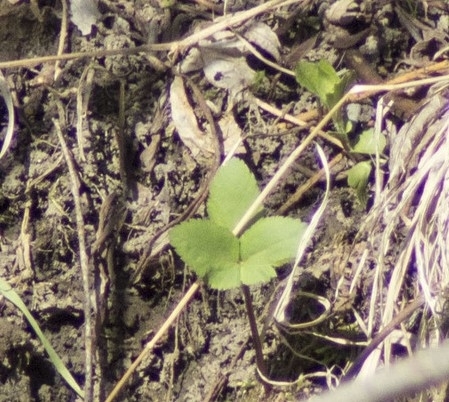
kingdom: Plantae
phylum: Tracheophyta
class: Magnoliopsida
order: Apiales
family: Apiaceae
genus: Aegopodium
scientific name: Aegopodium podagraria
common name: Ground-elder
